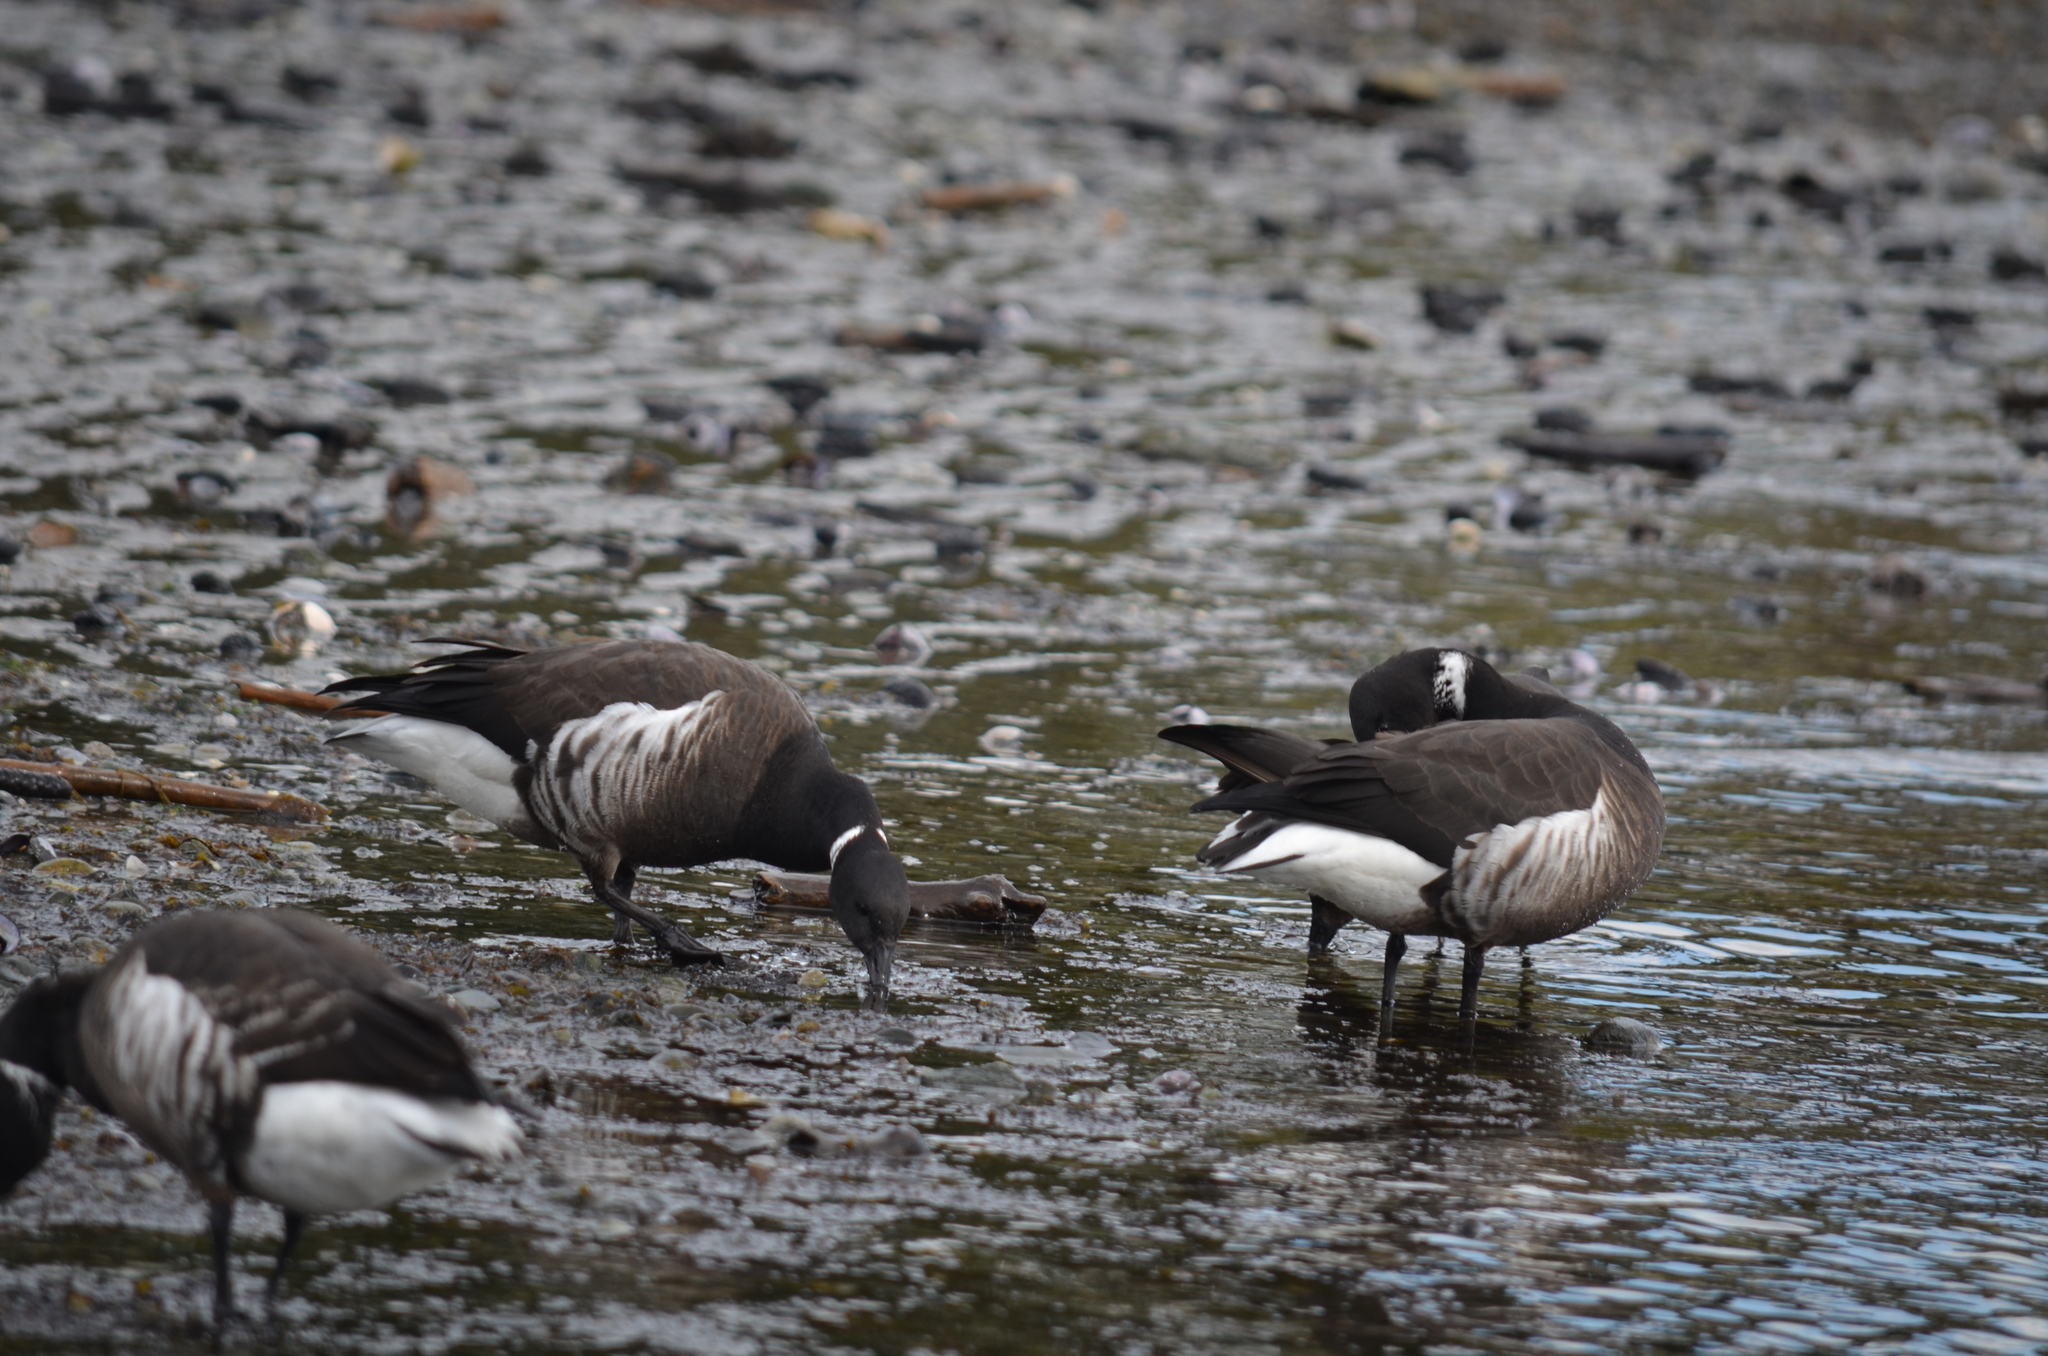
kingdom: Animalia
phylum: Chordata
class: Aves
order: Anseriformes
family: Anatidae
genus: Branta
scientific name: Branta bernicla
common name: Brant goose
